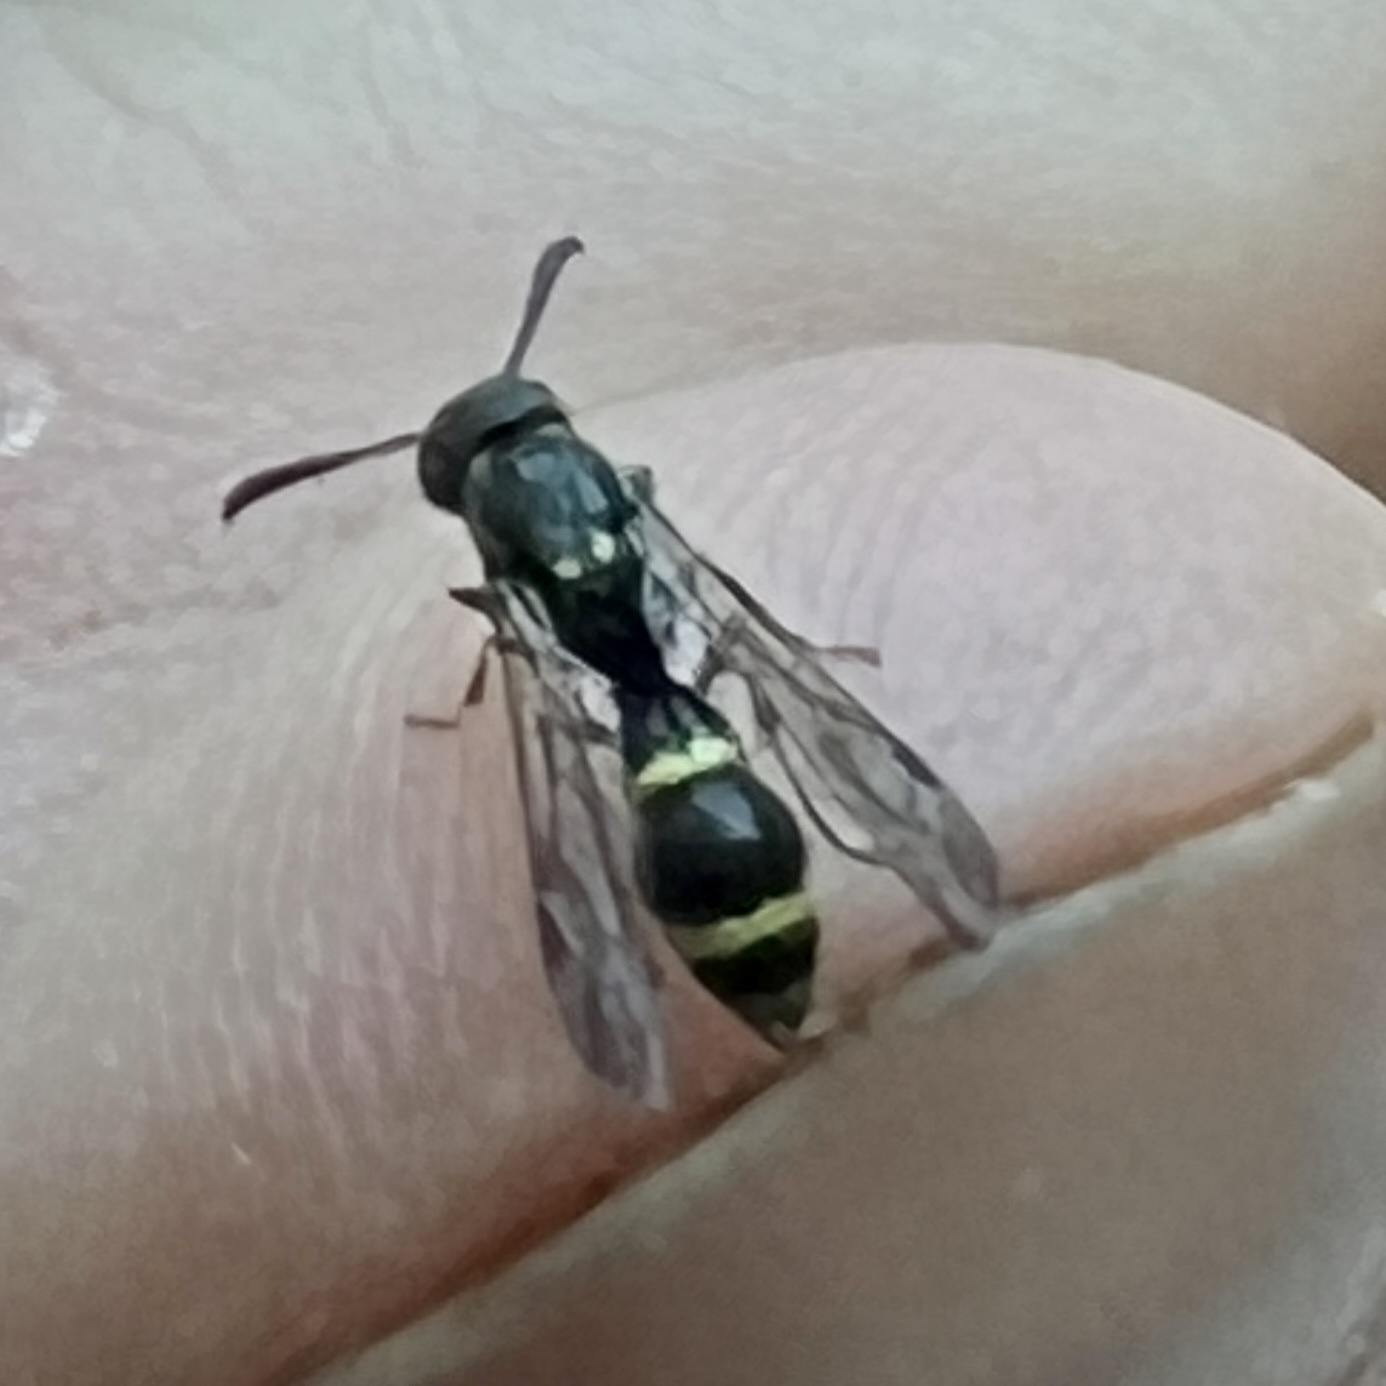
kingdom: Animalia
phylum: Arthropoda
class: Insecta
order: Hymenoptera
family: Eumenidae
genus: Symmorphus
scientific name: Symmorphus
